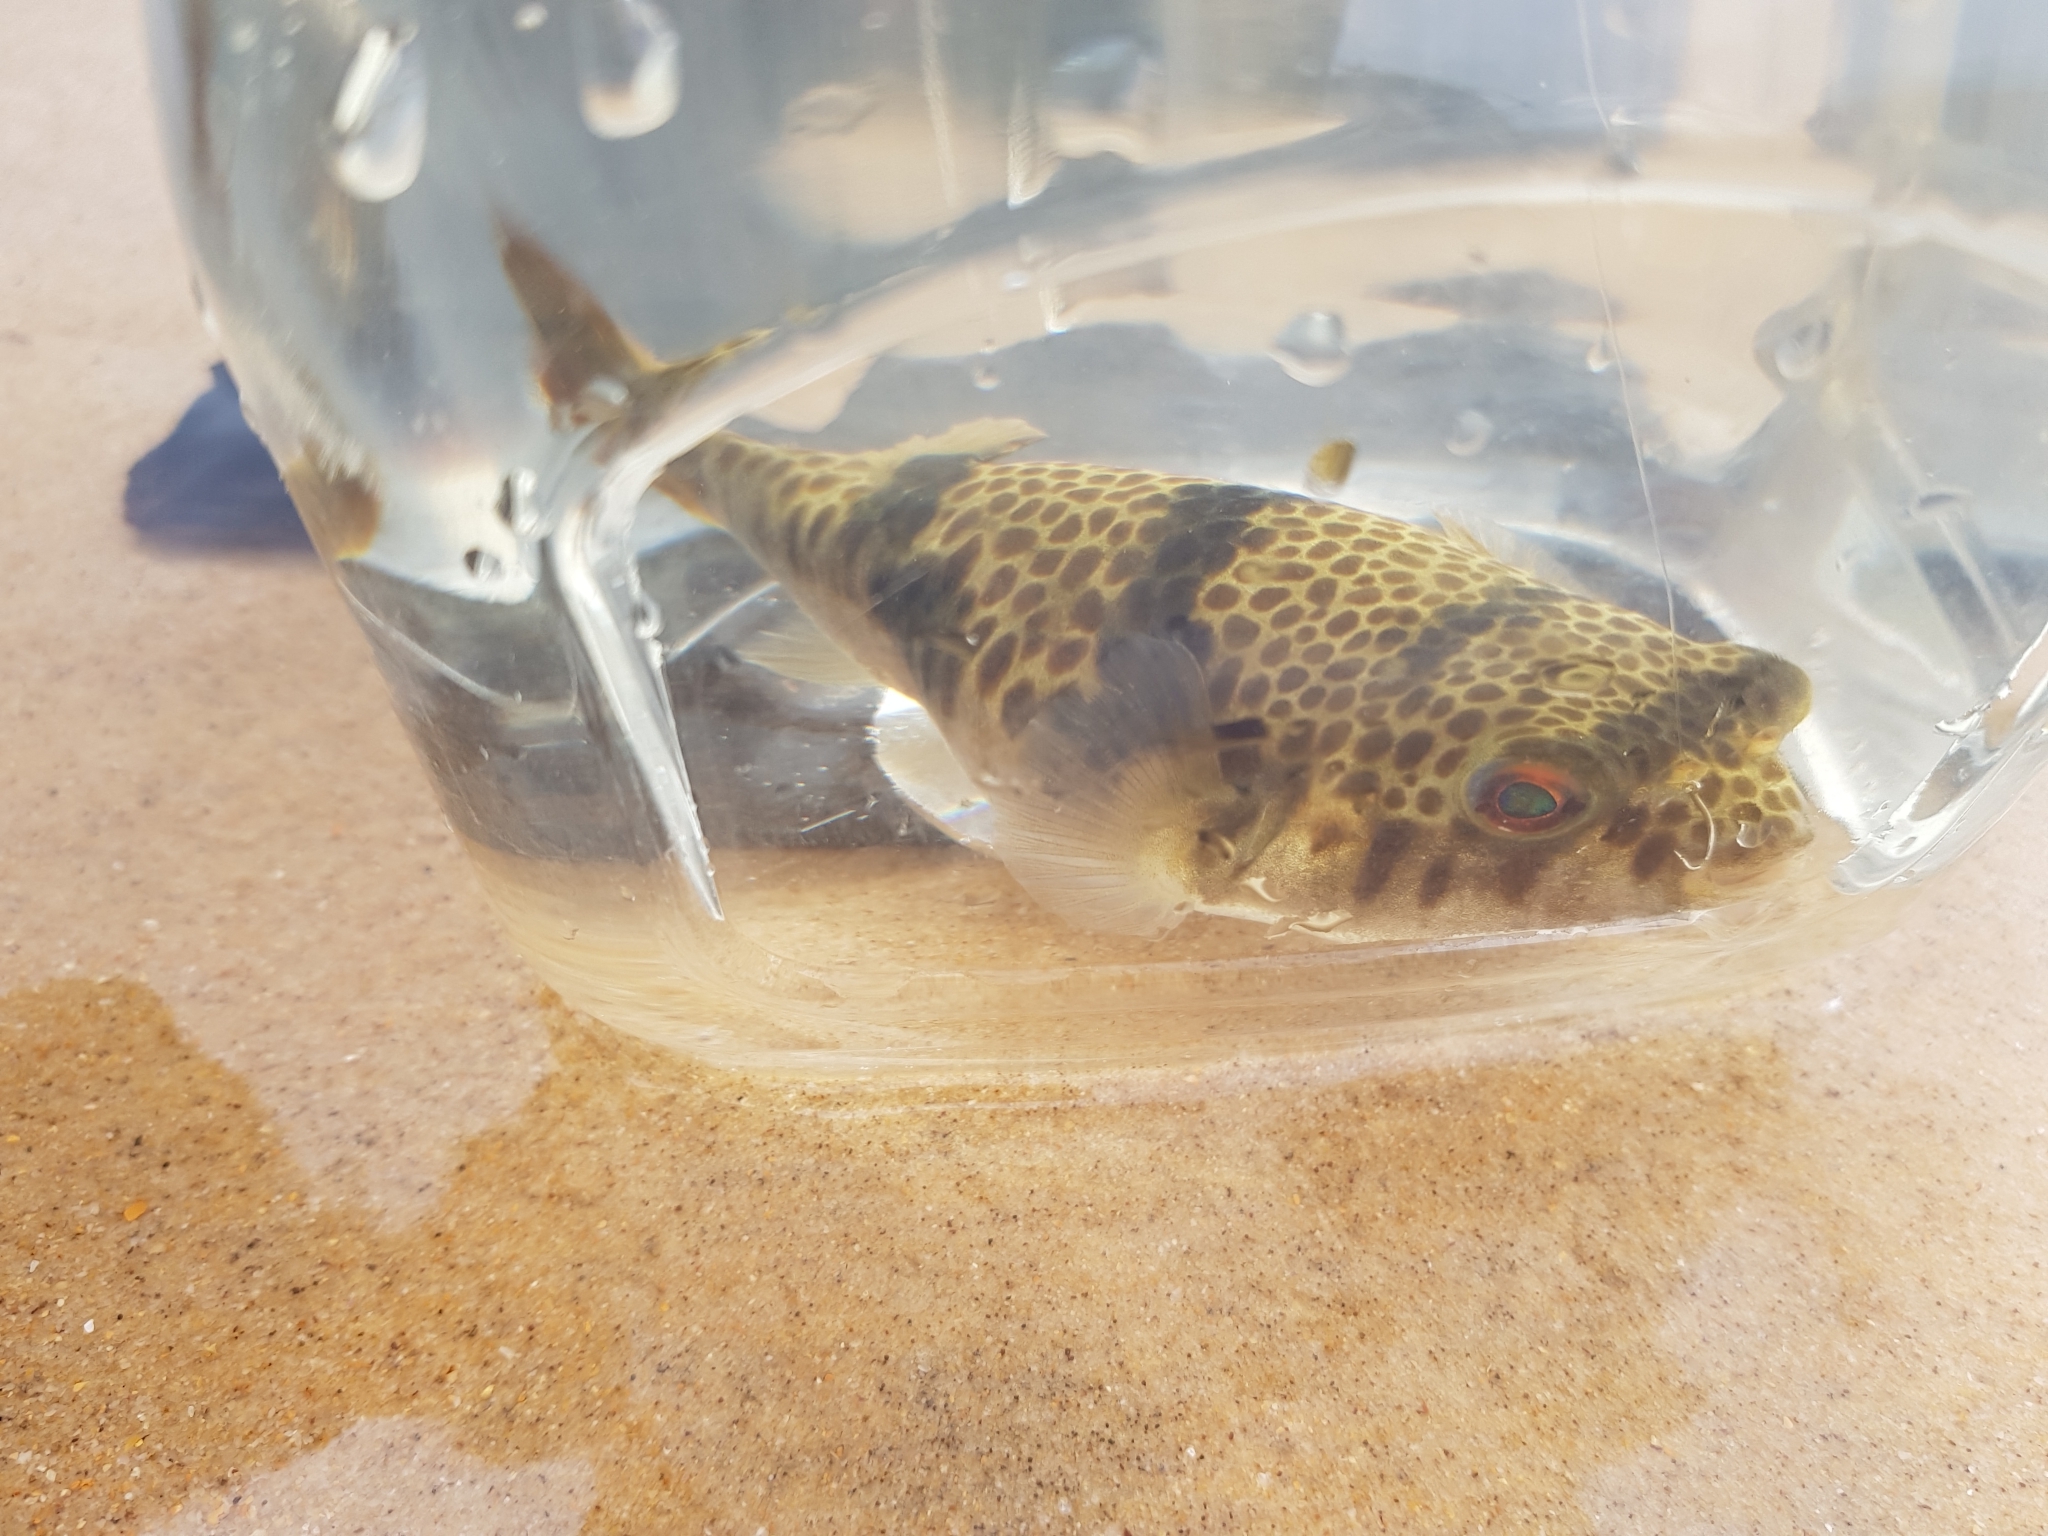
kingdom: Animalia
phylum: Chordata
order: Tetraodontiformes
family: Tetraodontidae
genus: Tetractenos
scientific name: Tetractenos glaber
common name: Smooth toadfish
